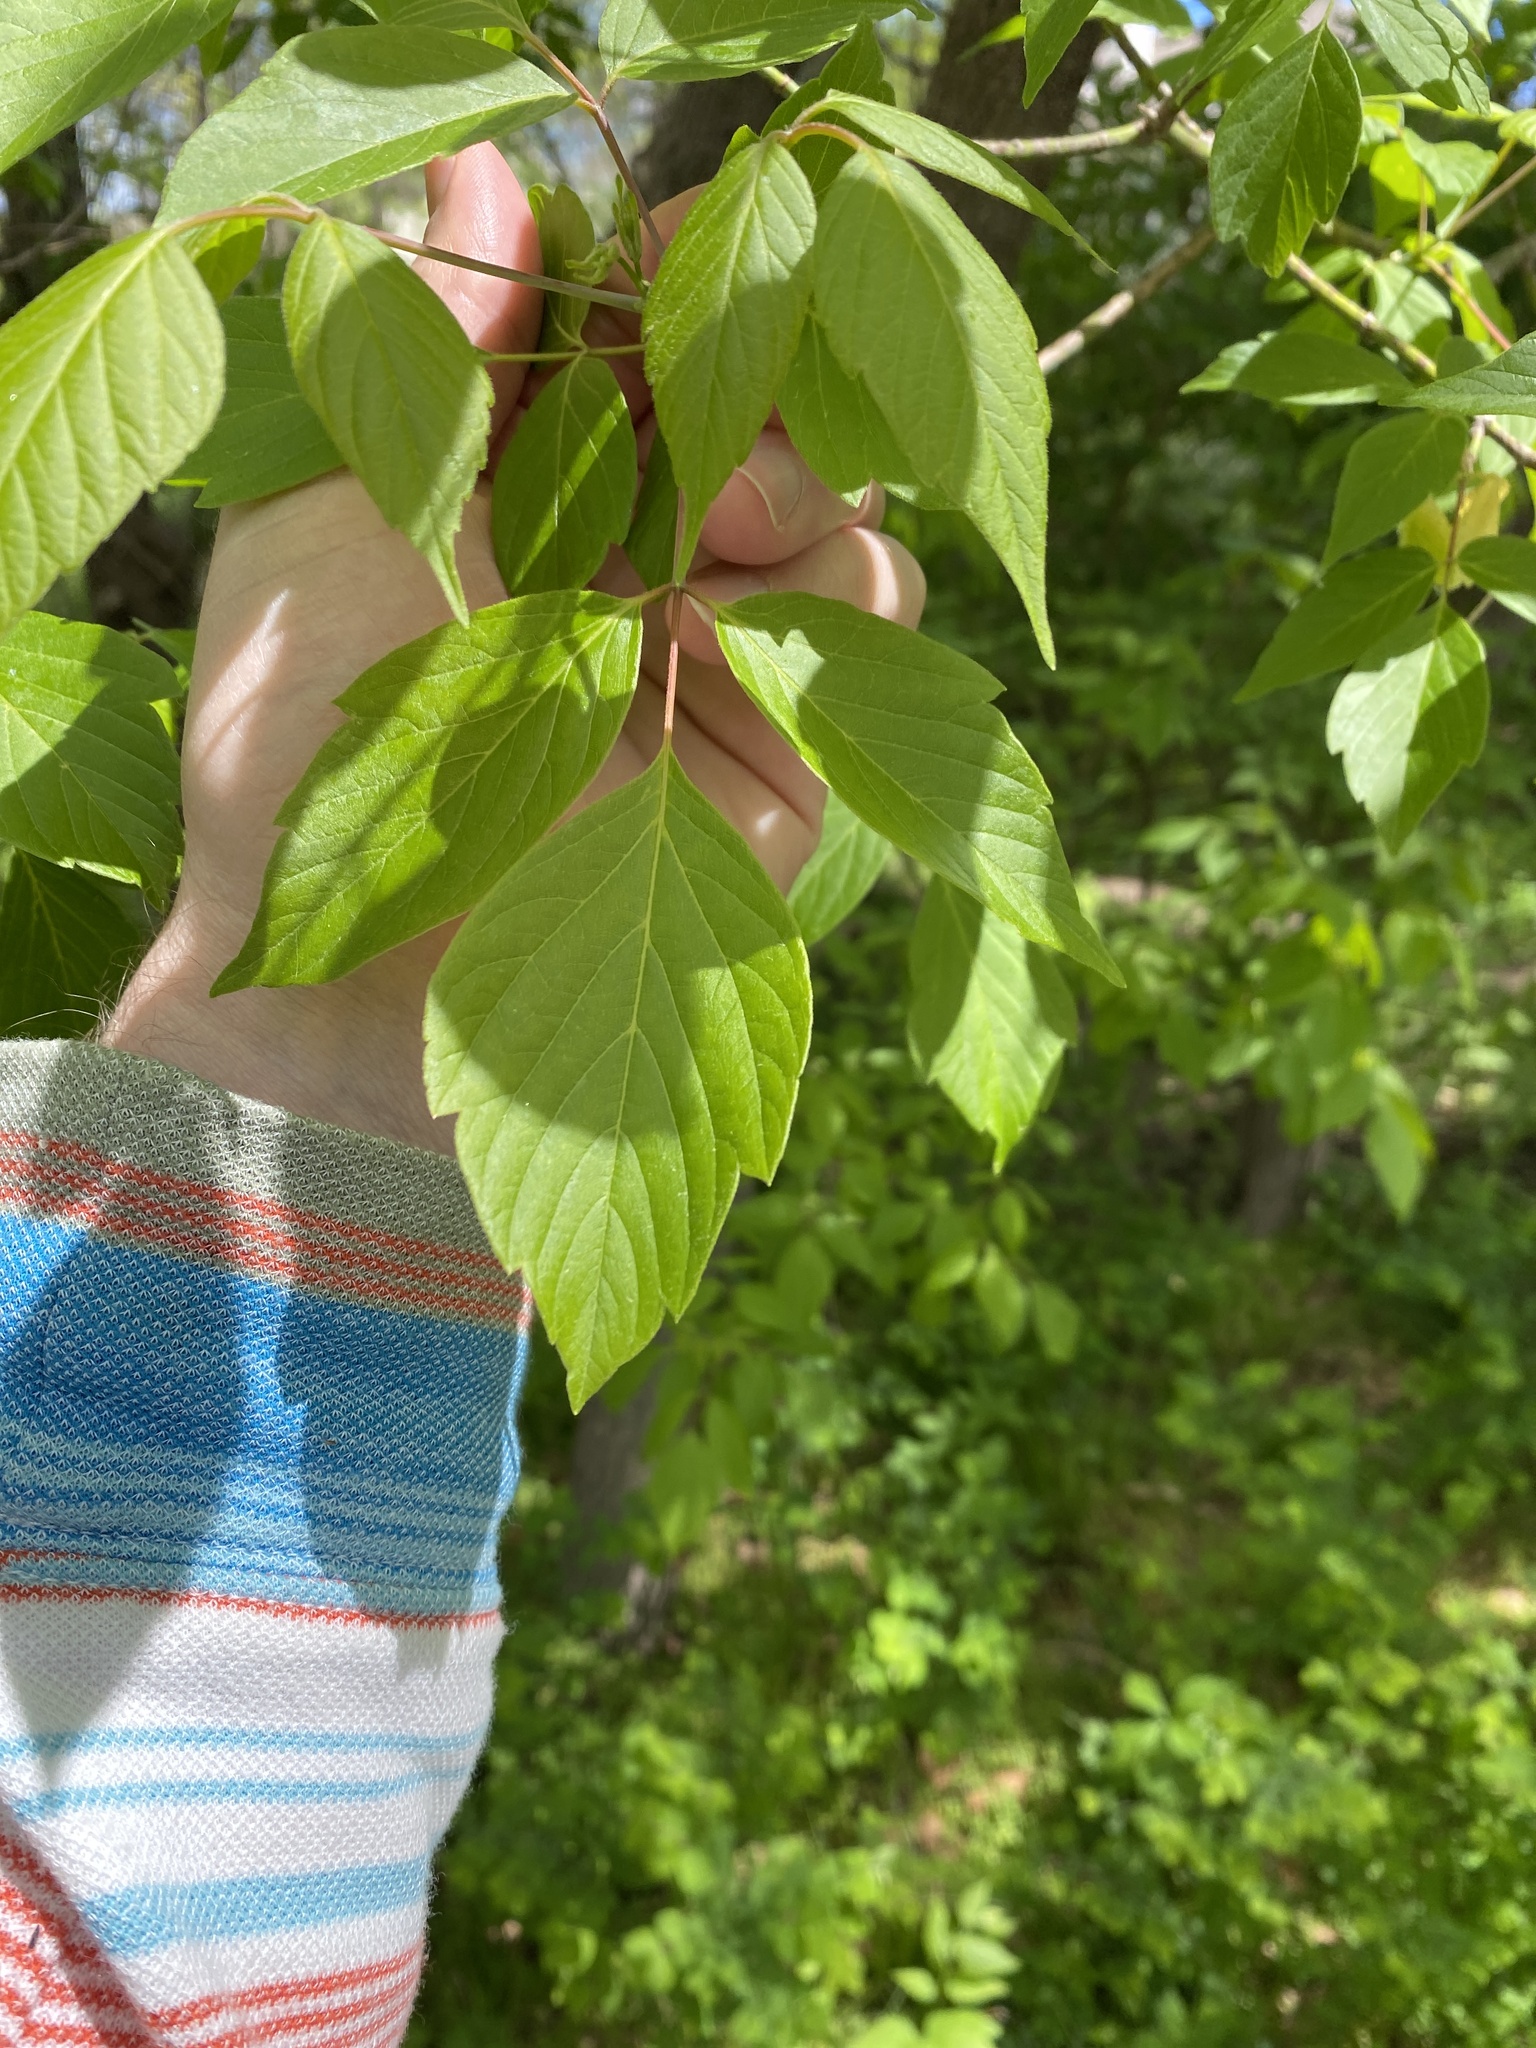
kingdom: Plantae
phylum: Tracheophyta
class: Magnoliopsida
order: Sapindales
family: Sapindaceae
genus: Acer
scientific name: Acer negundo
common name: Ashleaf maple
